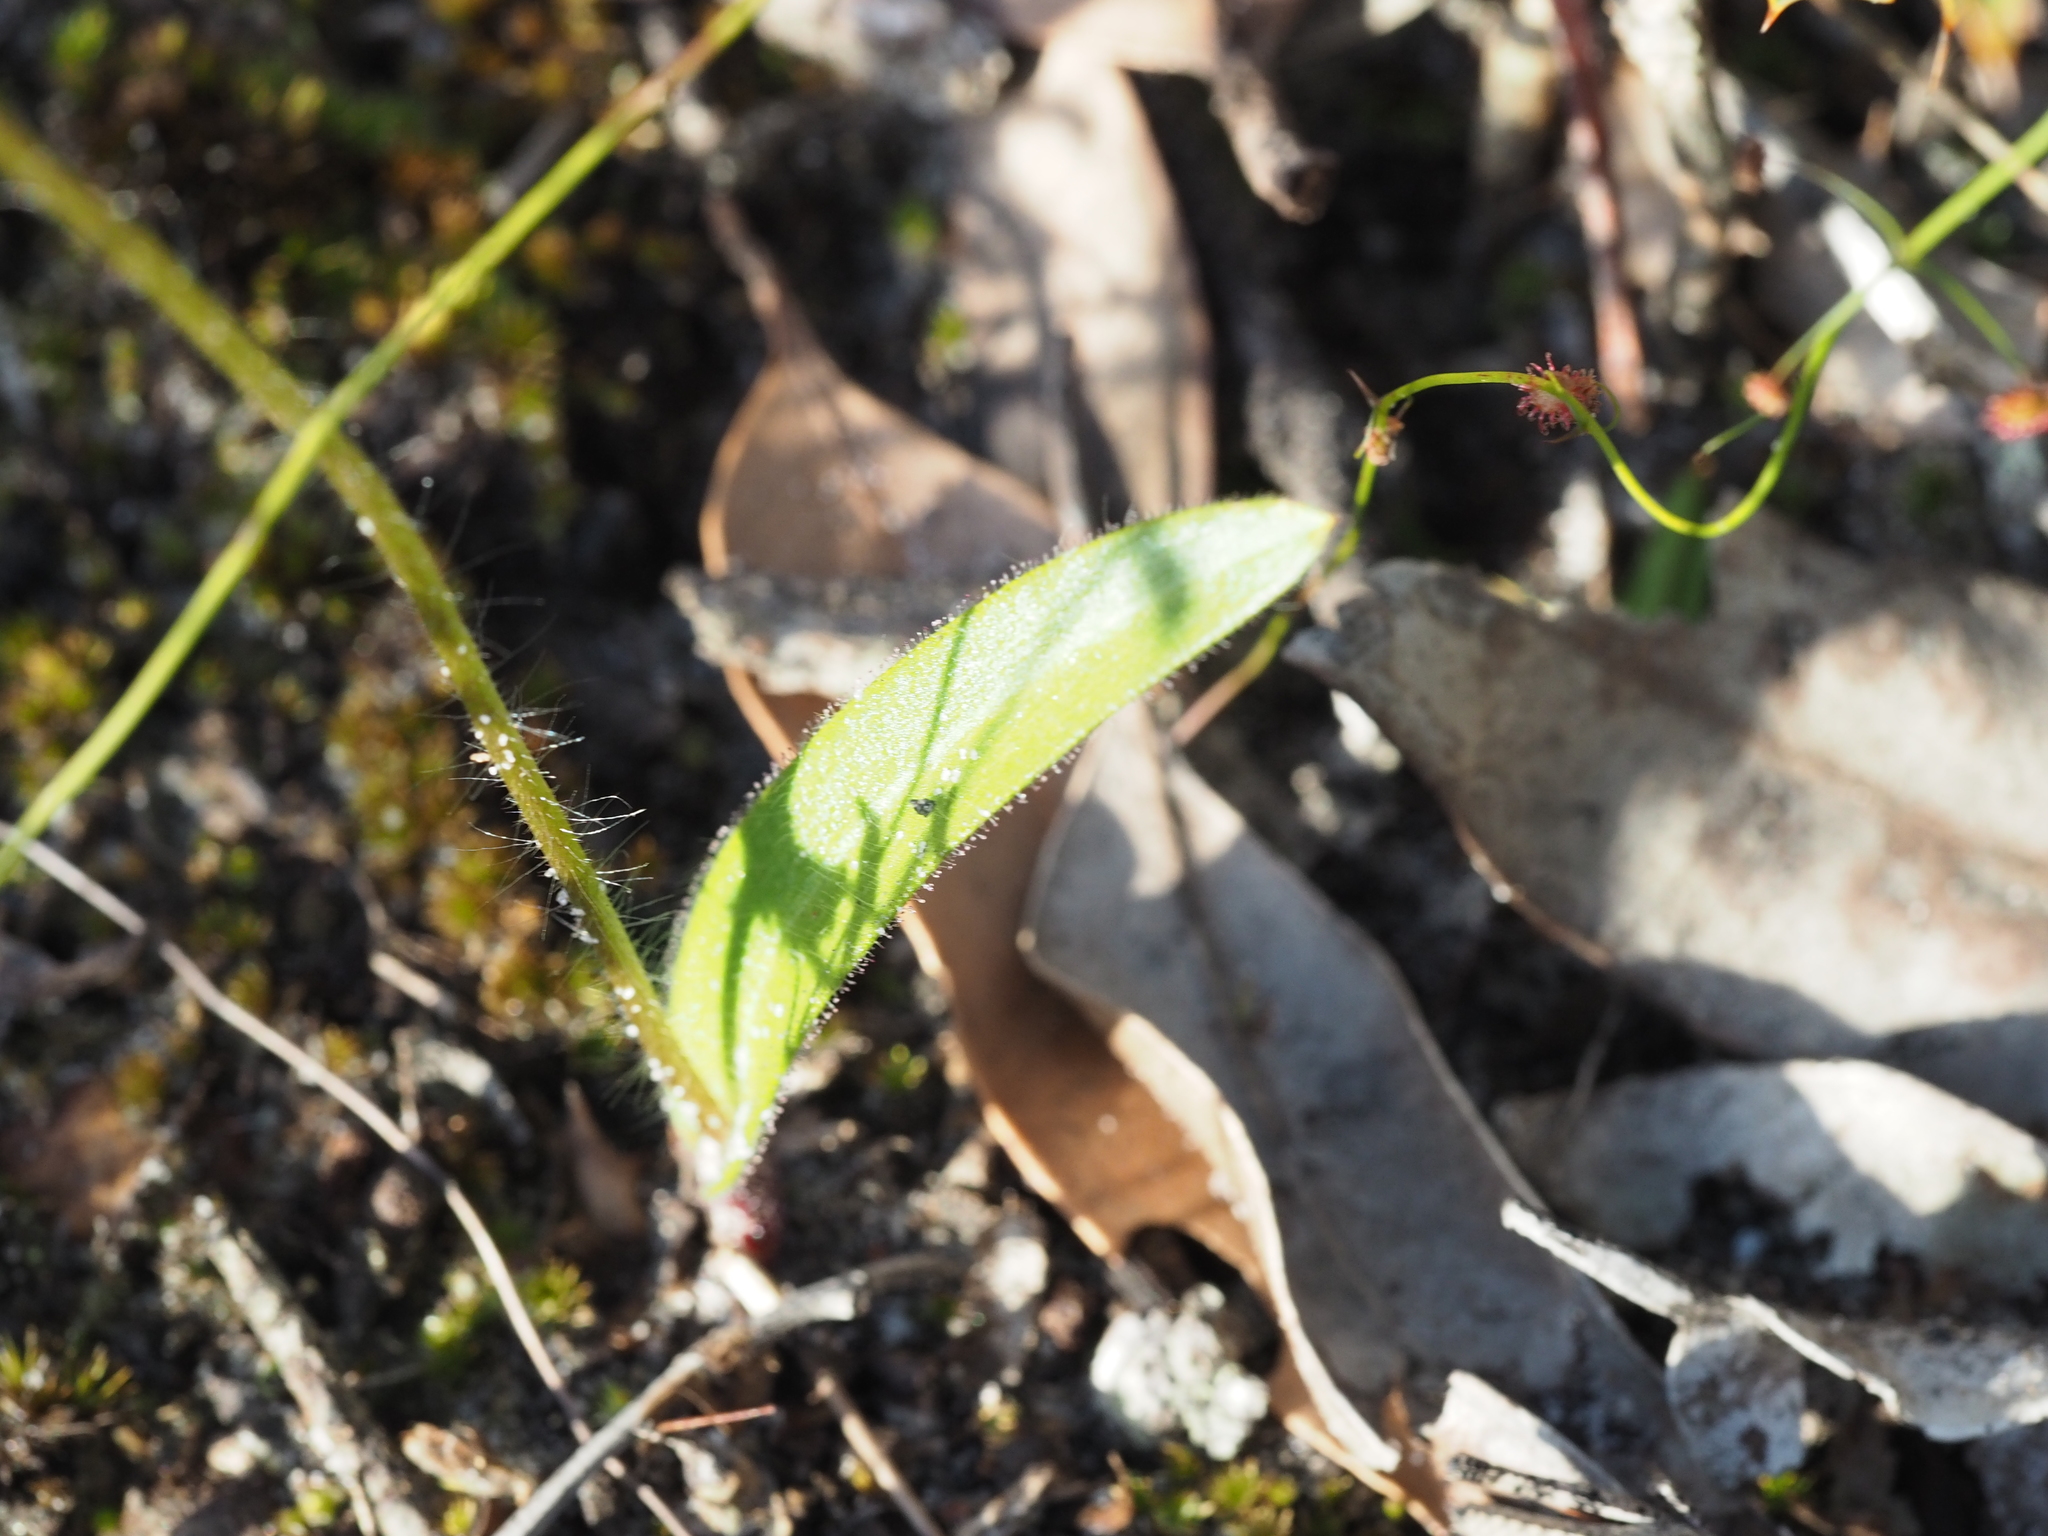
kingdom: Plantae
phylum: Tracheophyta
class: Liliopsida
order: Asparagales
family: Orchidaceae
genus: Caladenia
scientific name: Caladenia brunonis
